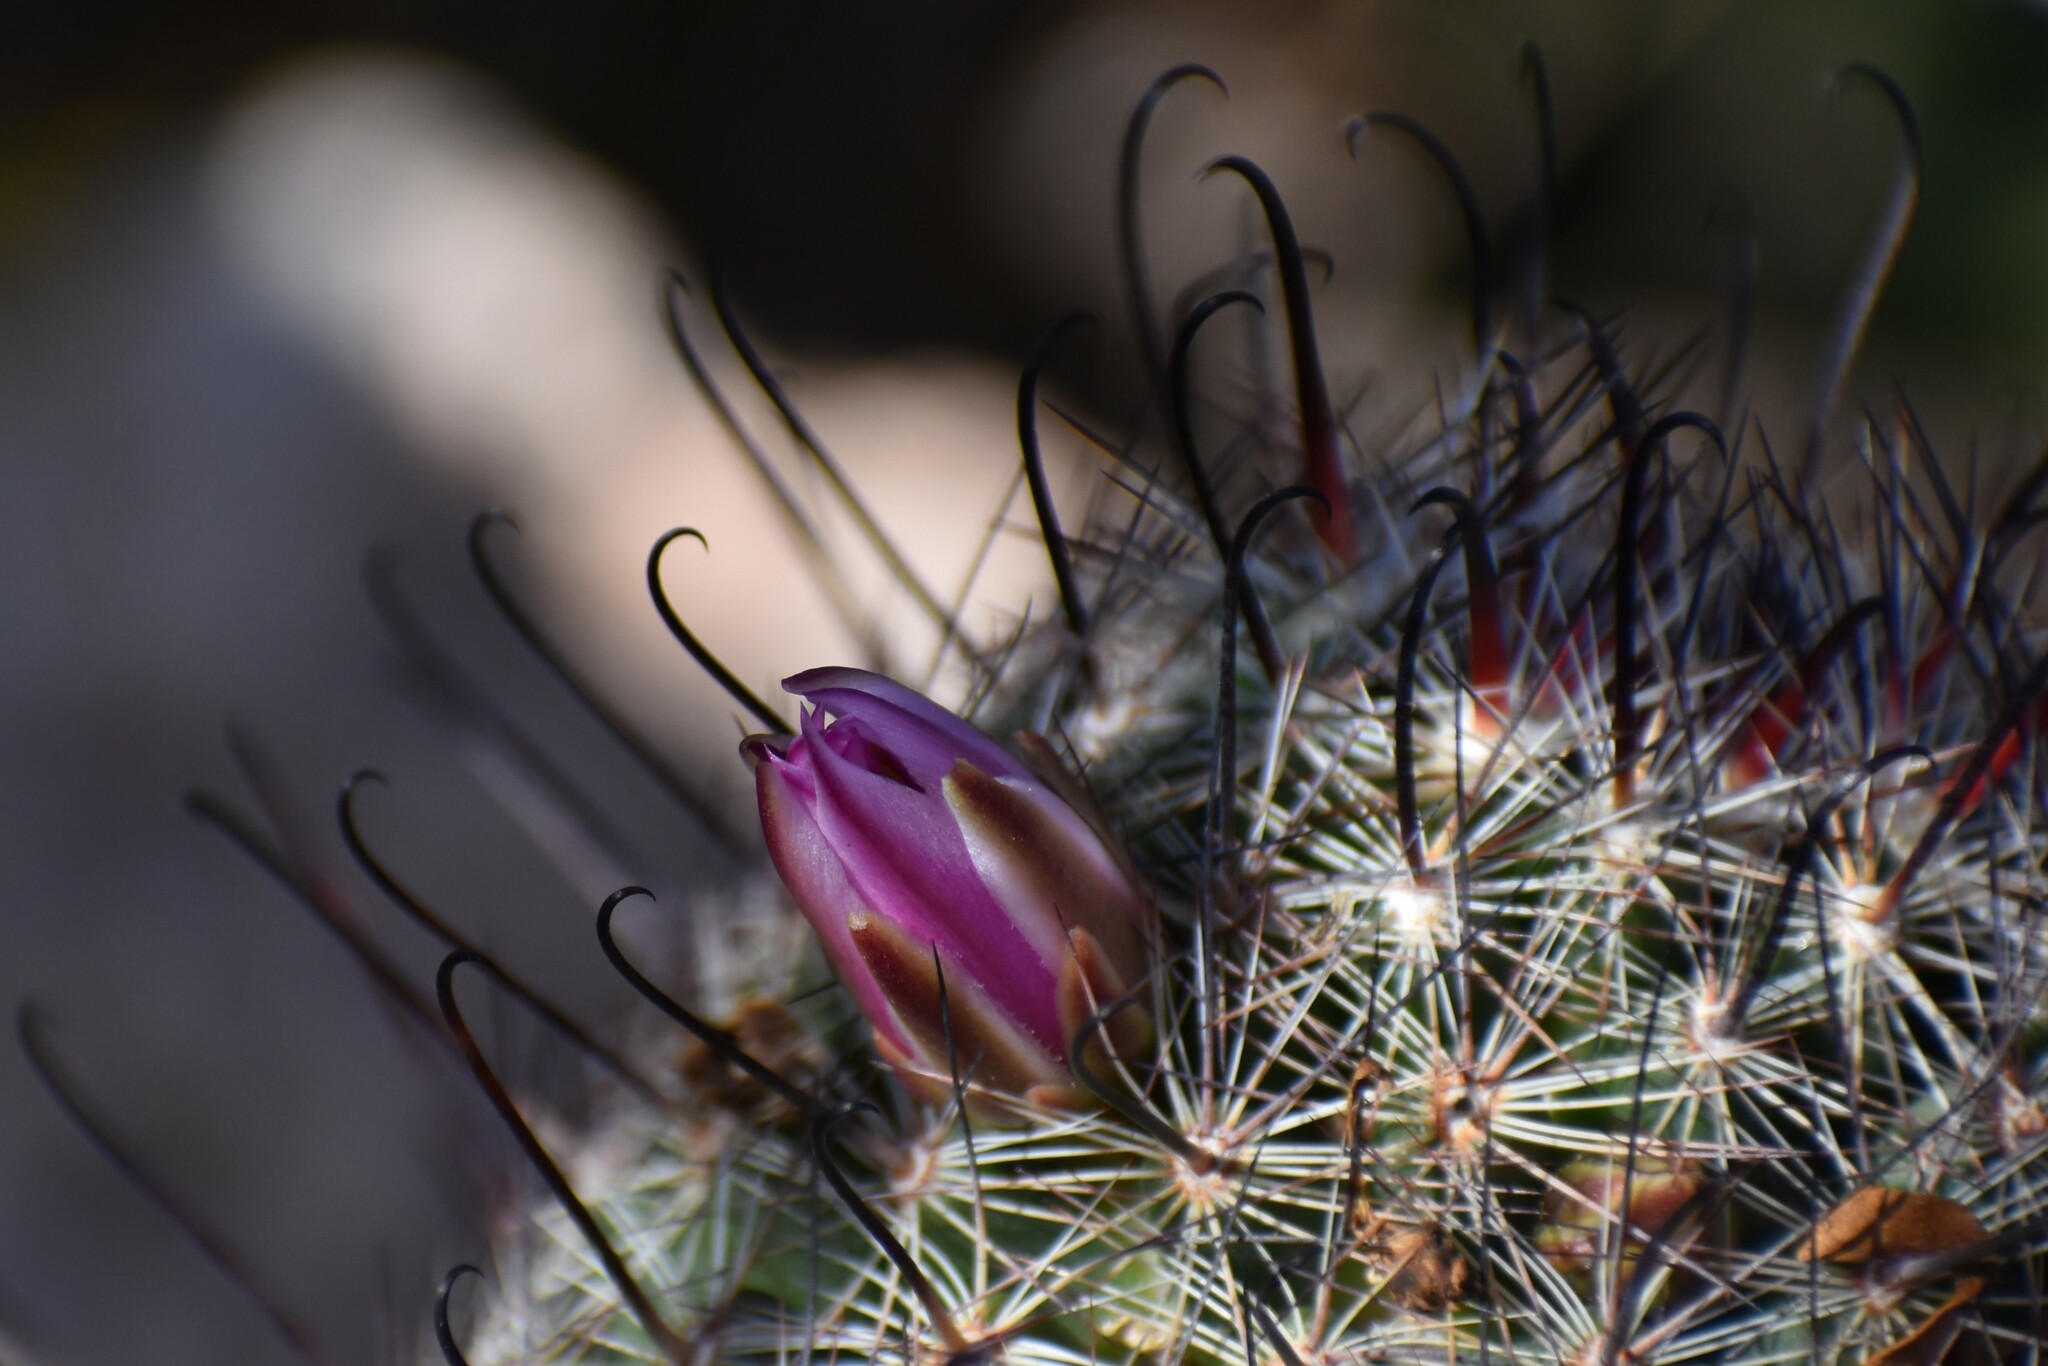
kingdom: Plantae
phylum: Tracheophyta
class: Magnoliopsida
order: Caryophyllales
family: Cactaceae
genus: Cochemiea
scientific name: Cochemiea grahamii
